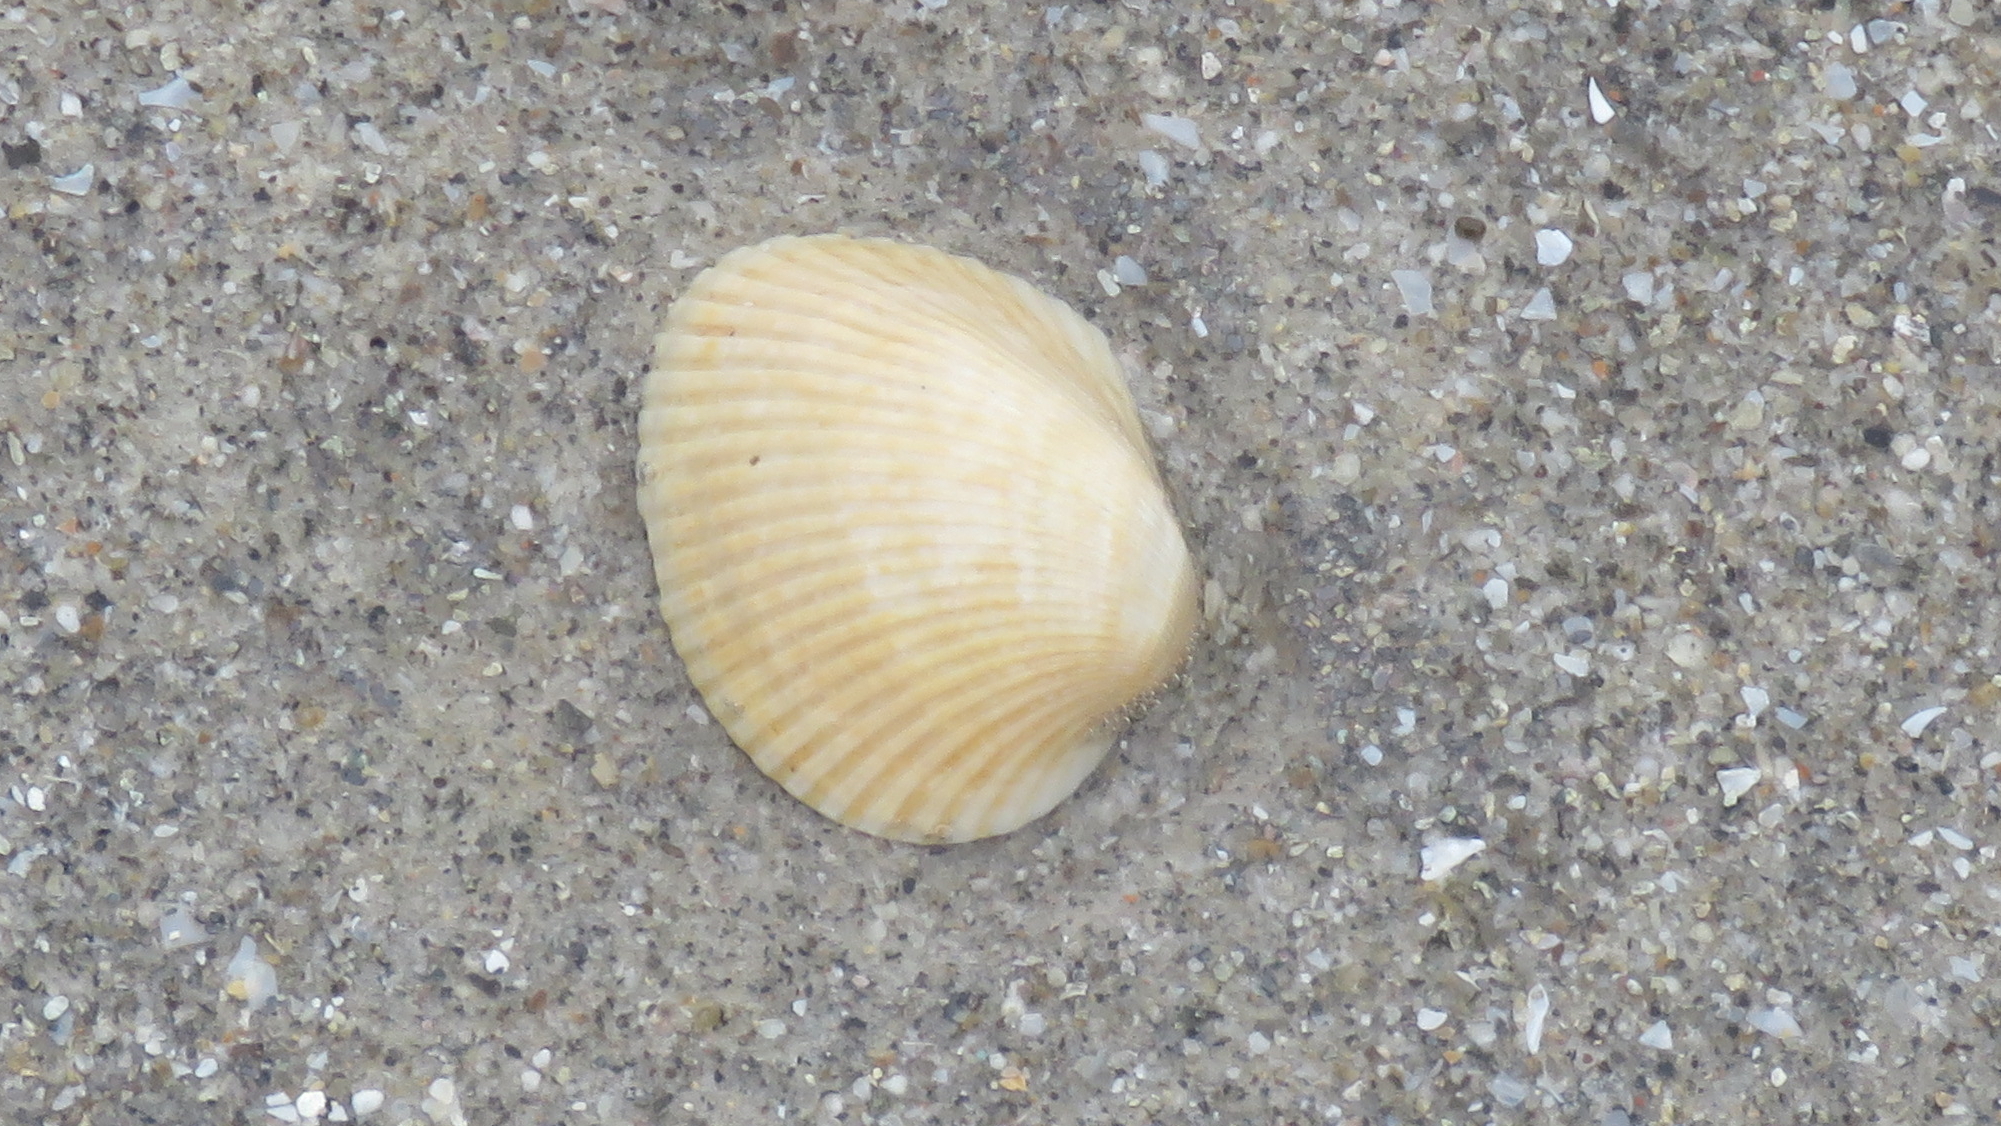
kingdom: Animalia
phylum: Mollusca
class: Bivalvia
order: Arcida
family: Arcidae
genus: Lunarca
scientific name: Lunarca ovalis
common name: Blood ark
